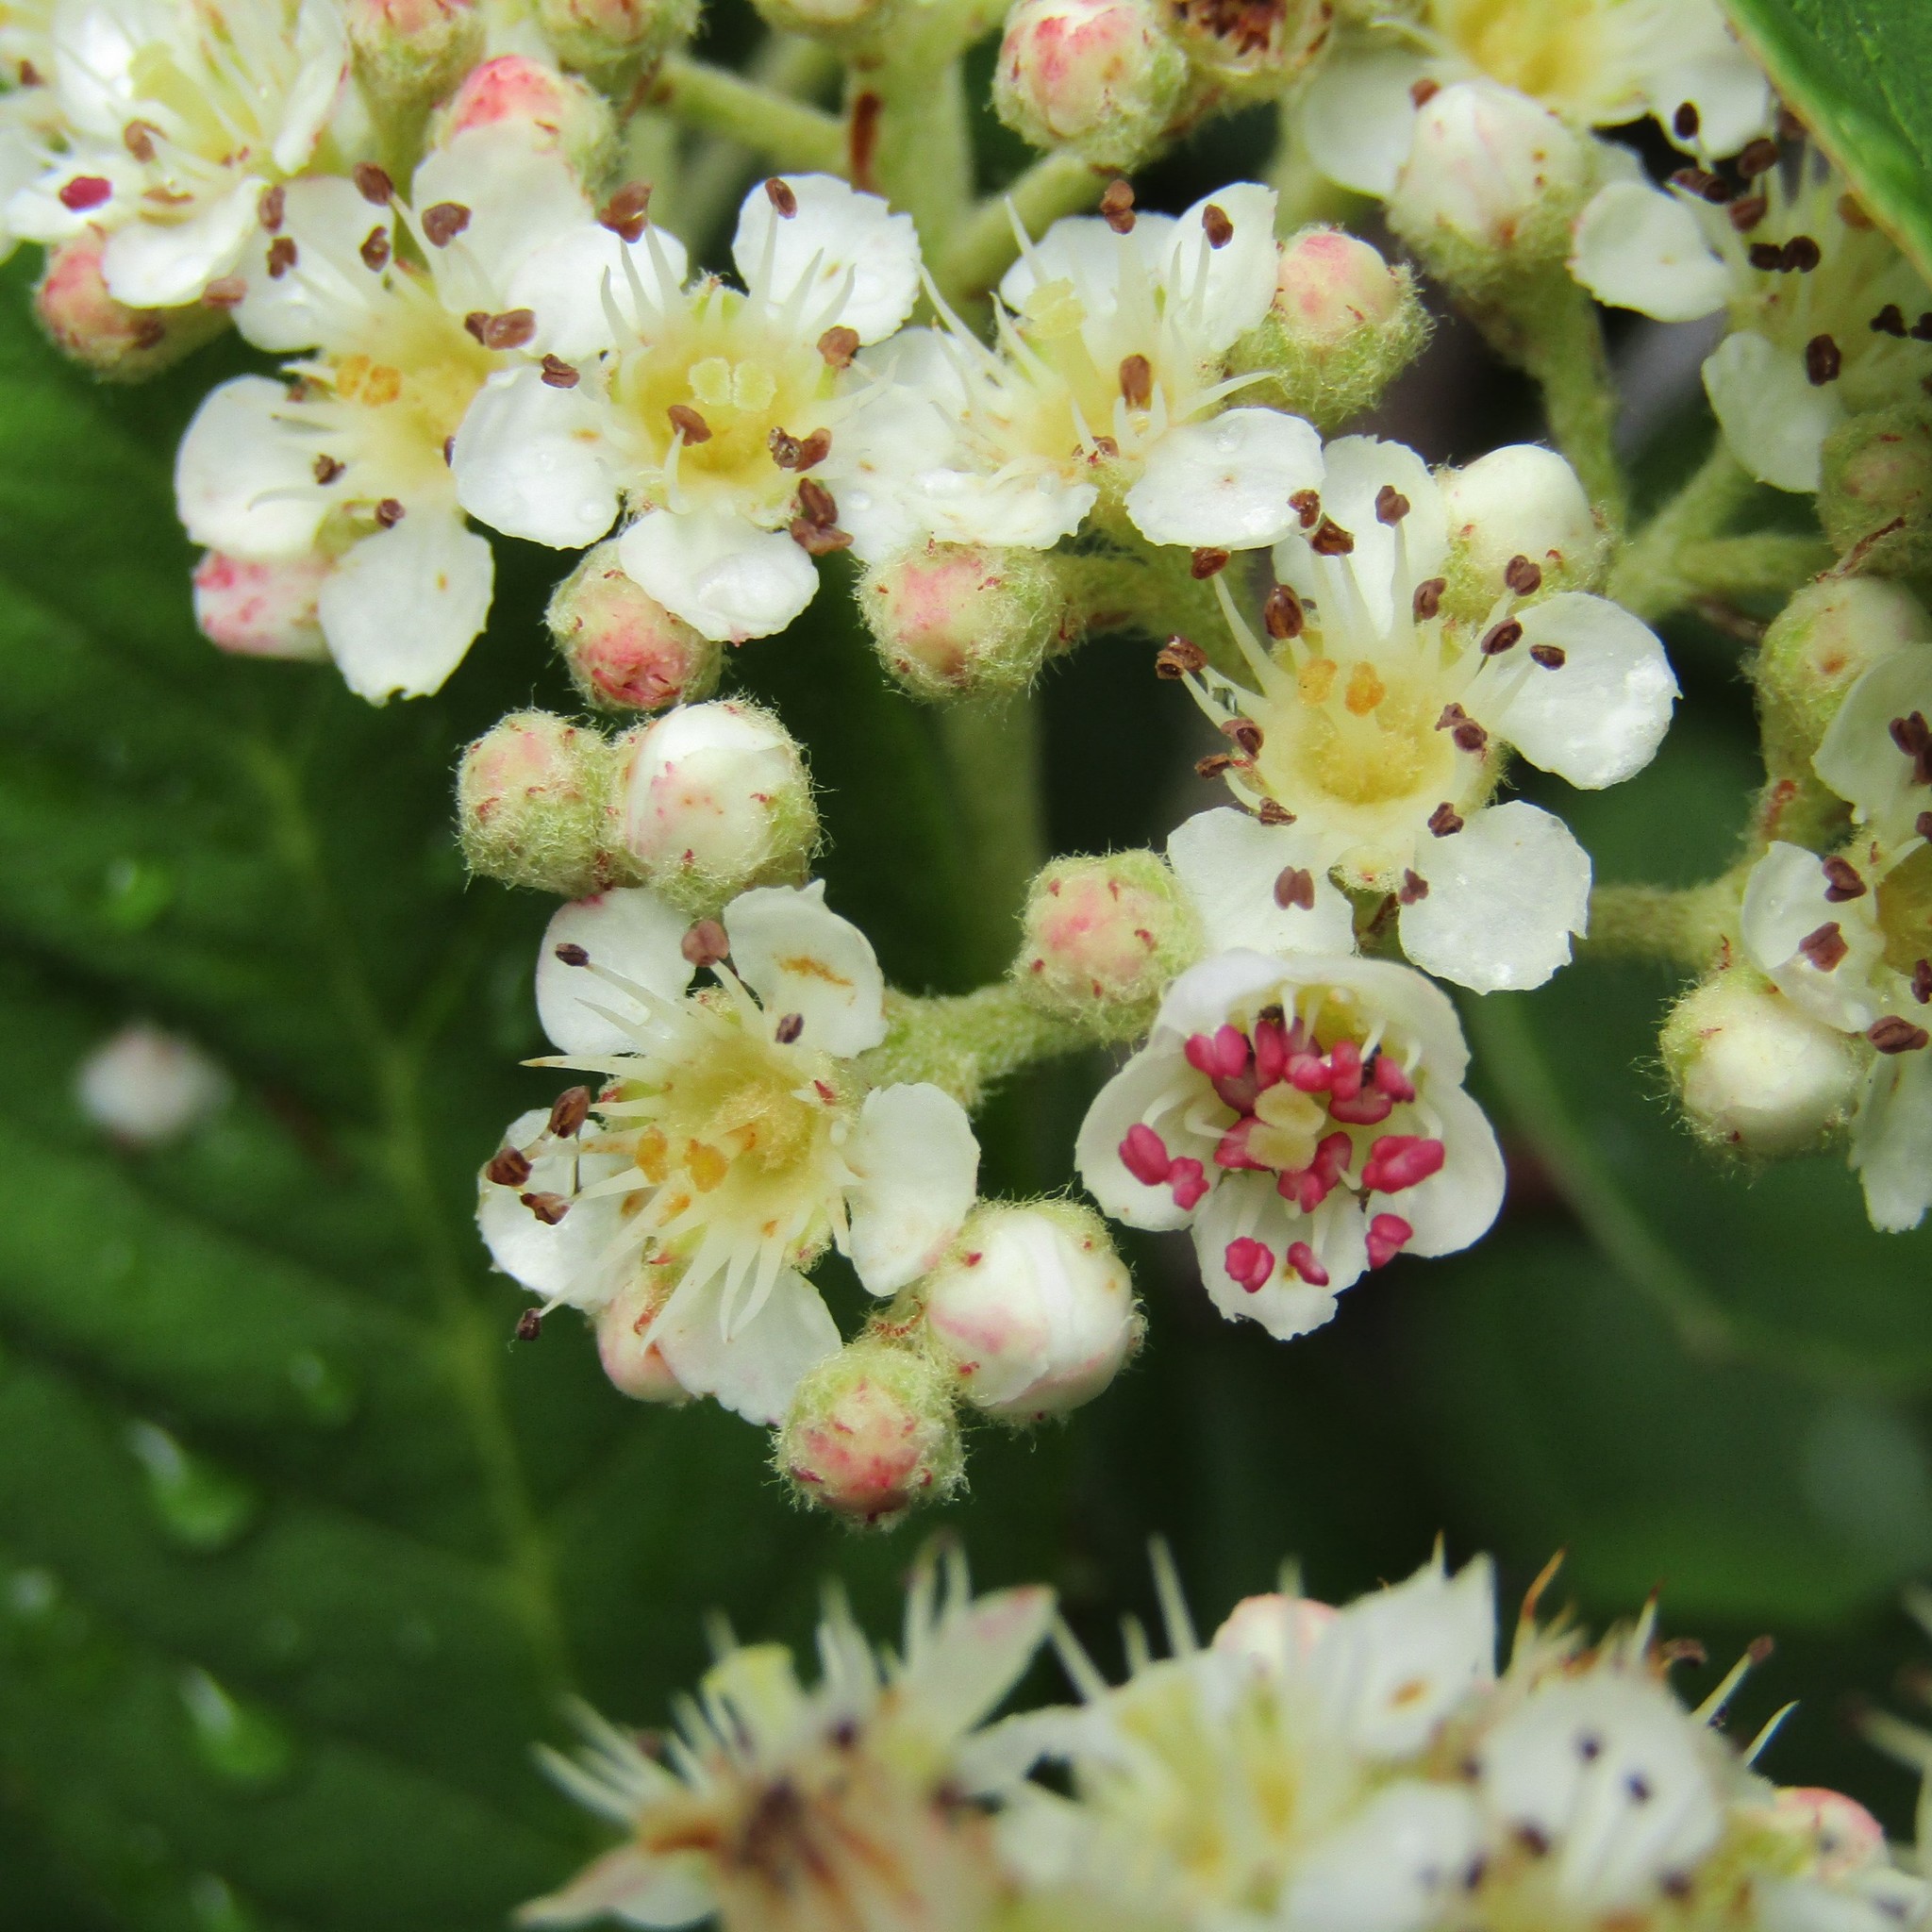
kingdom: Plantae
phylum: Tracheophyta
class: Magnoliopsida
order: Rosales
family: Rosaceae
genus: Cotoneaster
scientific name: Cotoneaster coriaceus
